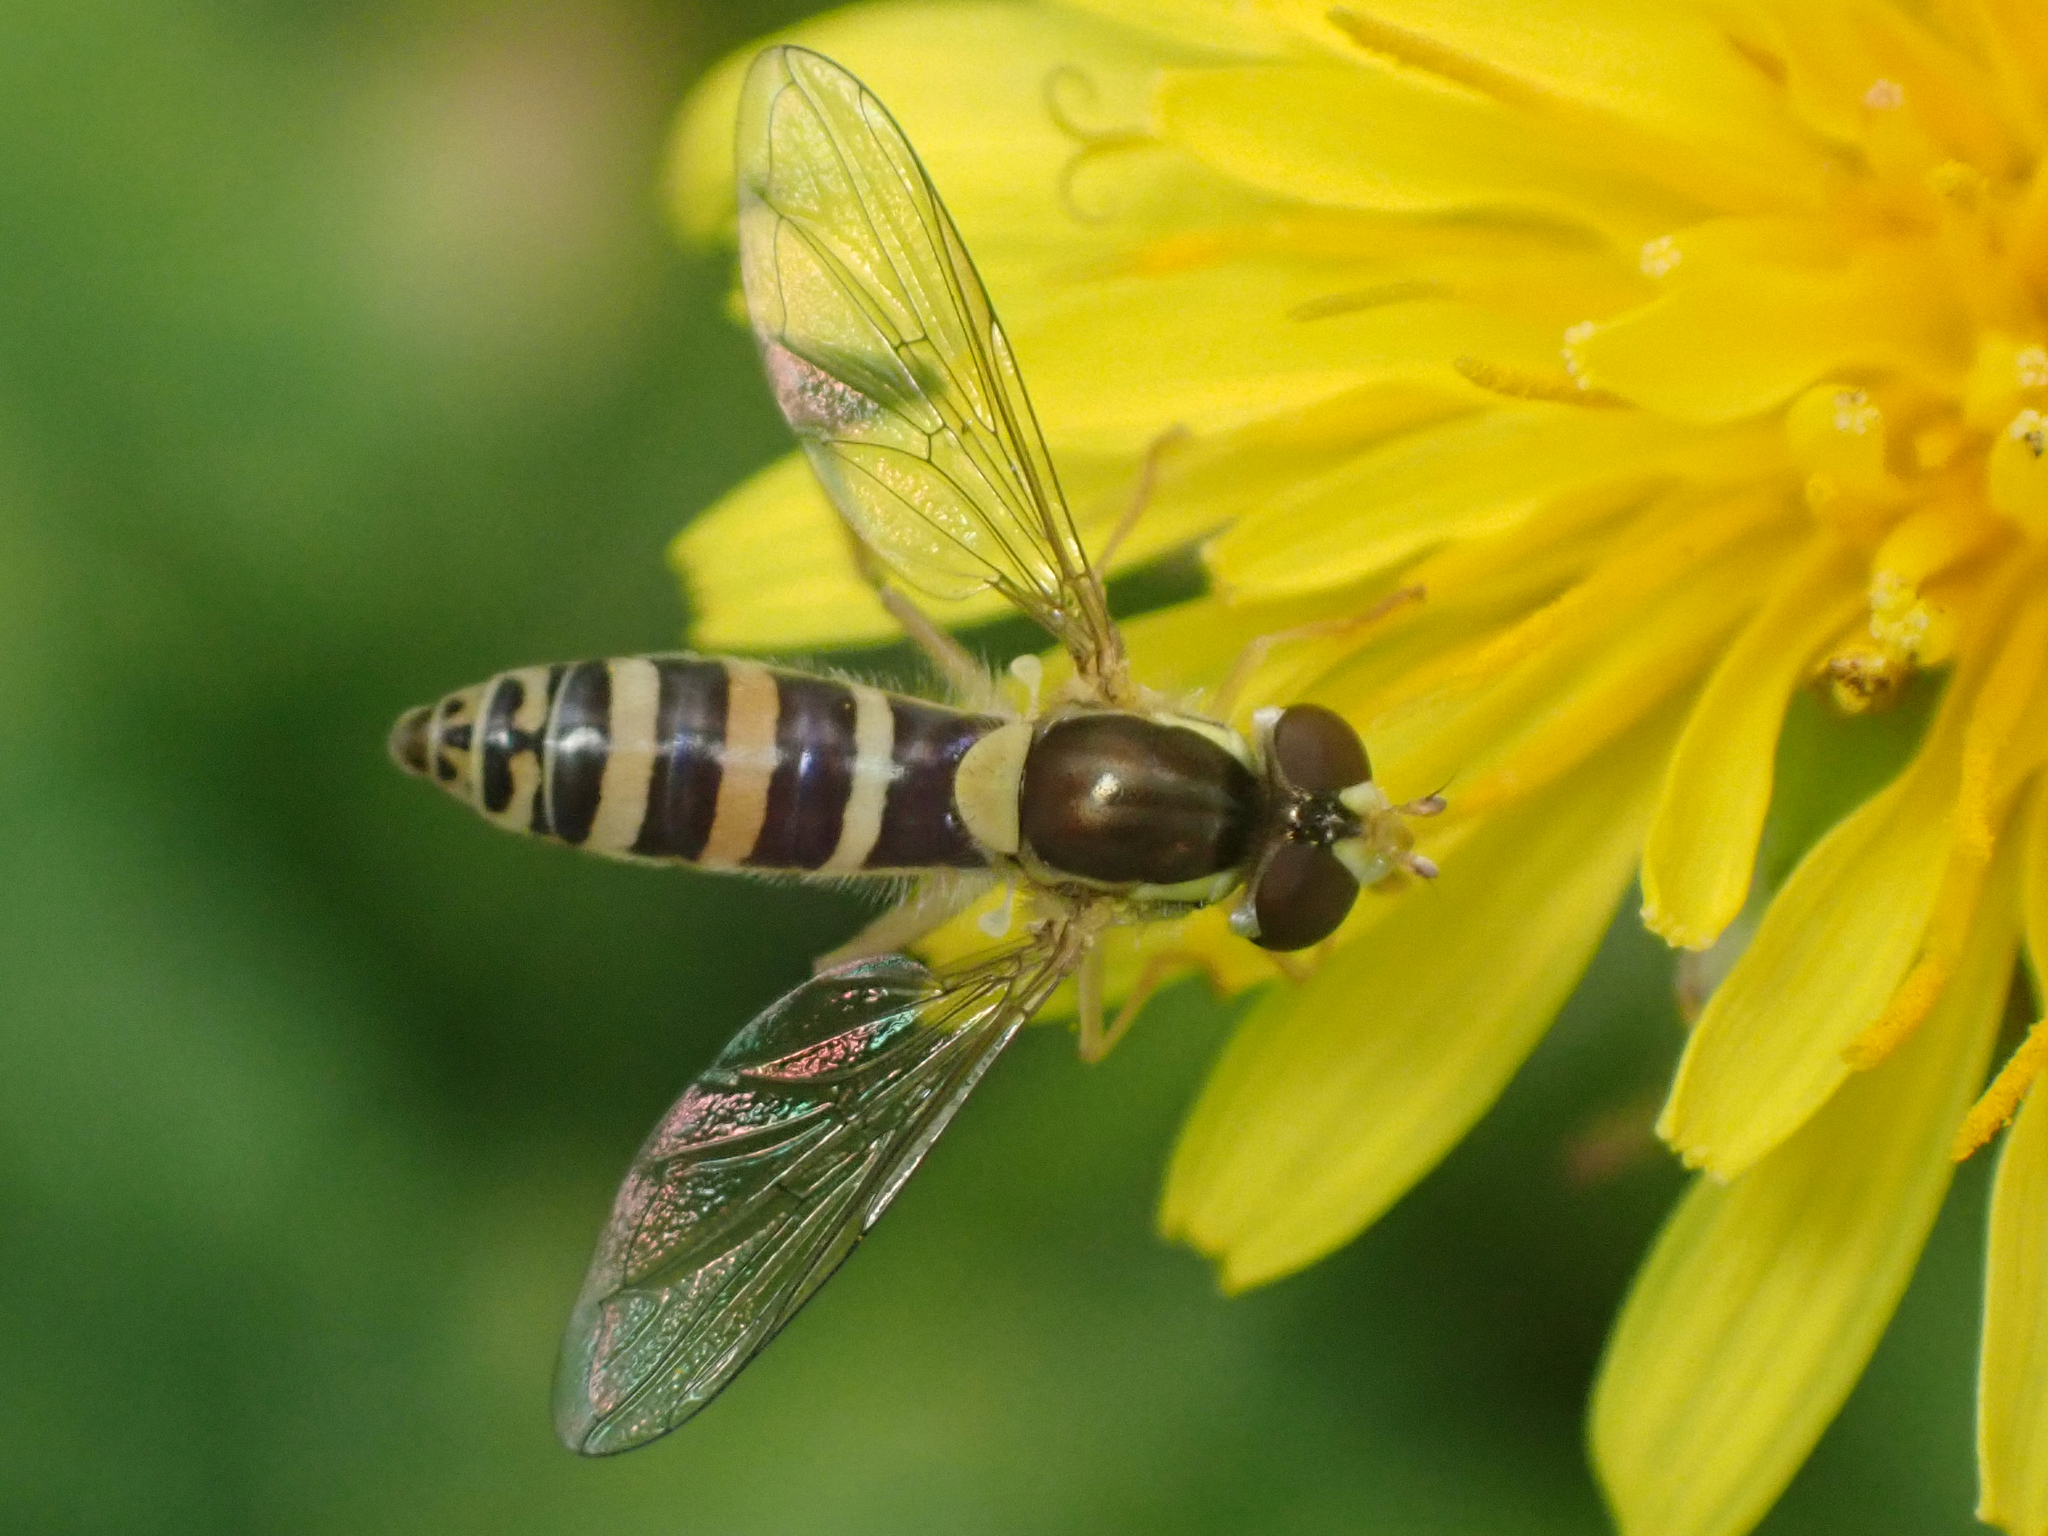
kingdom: Animalia
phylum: Arthropoda
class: Insecta
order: Diptera
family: Syrphidae
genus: Sphaerophoria
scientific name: Sphaerophoria
